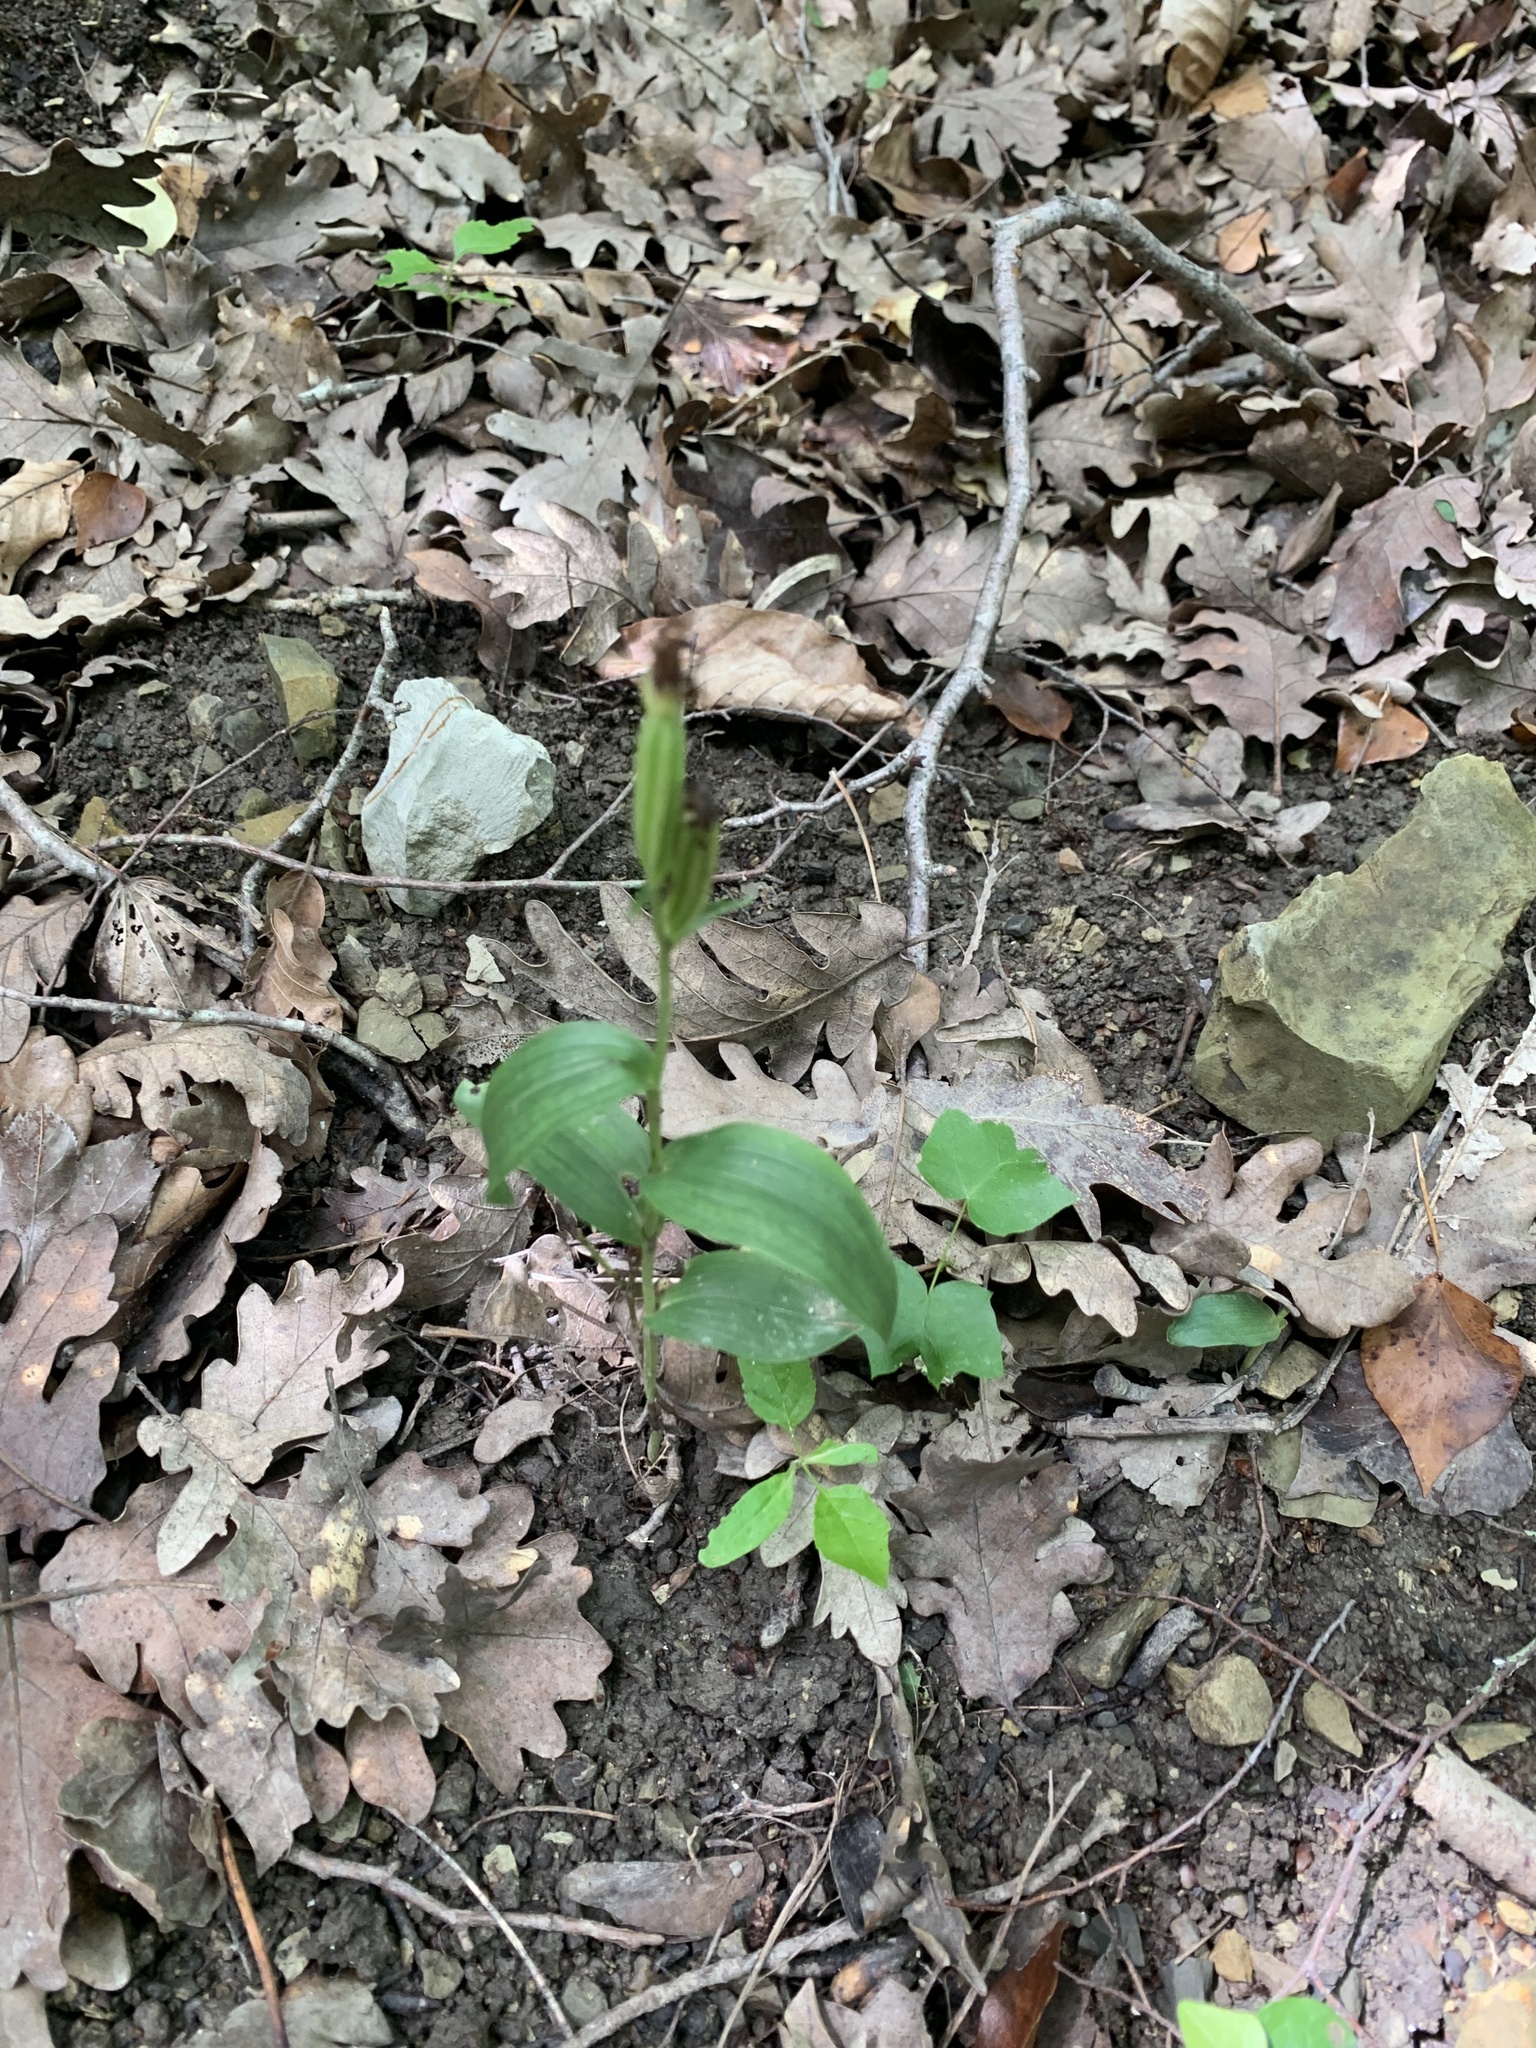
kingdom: Plantae
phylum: Tracheophyta
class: Liliopsida
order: Asparagales
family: Orchidaceae
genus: Cephalanthera
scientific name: Cephalanthera damasonium
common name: White helleborine
